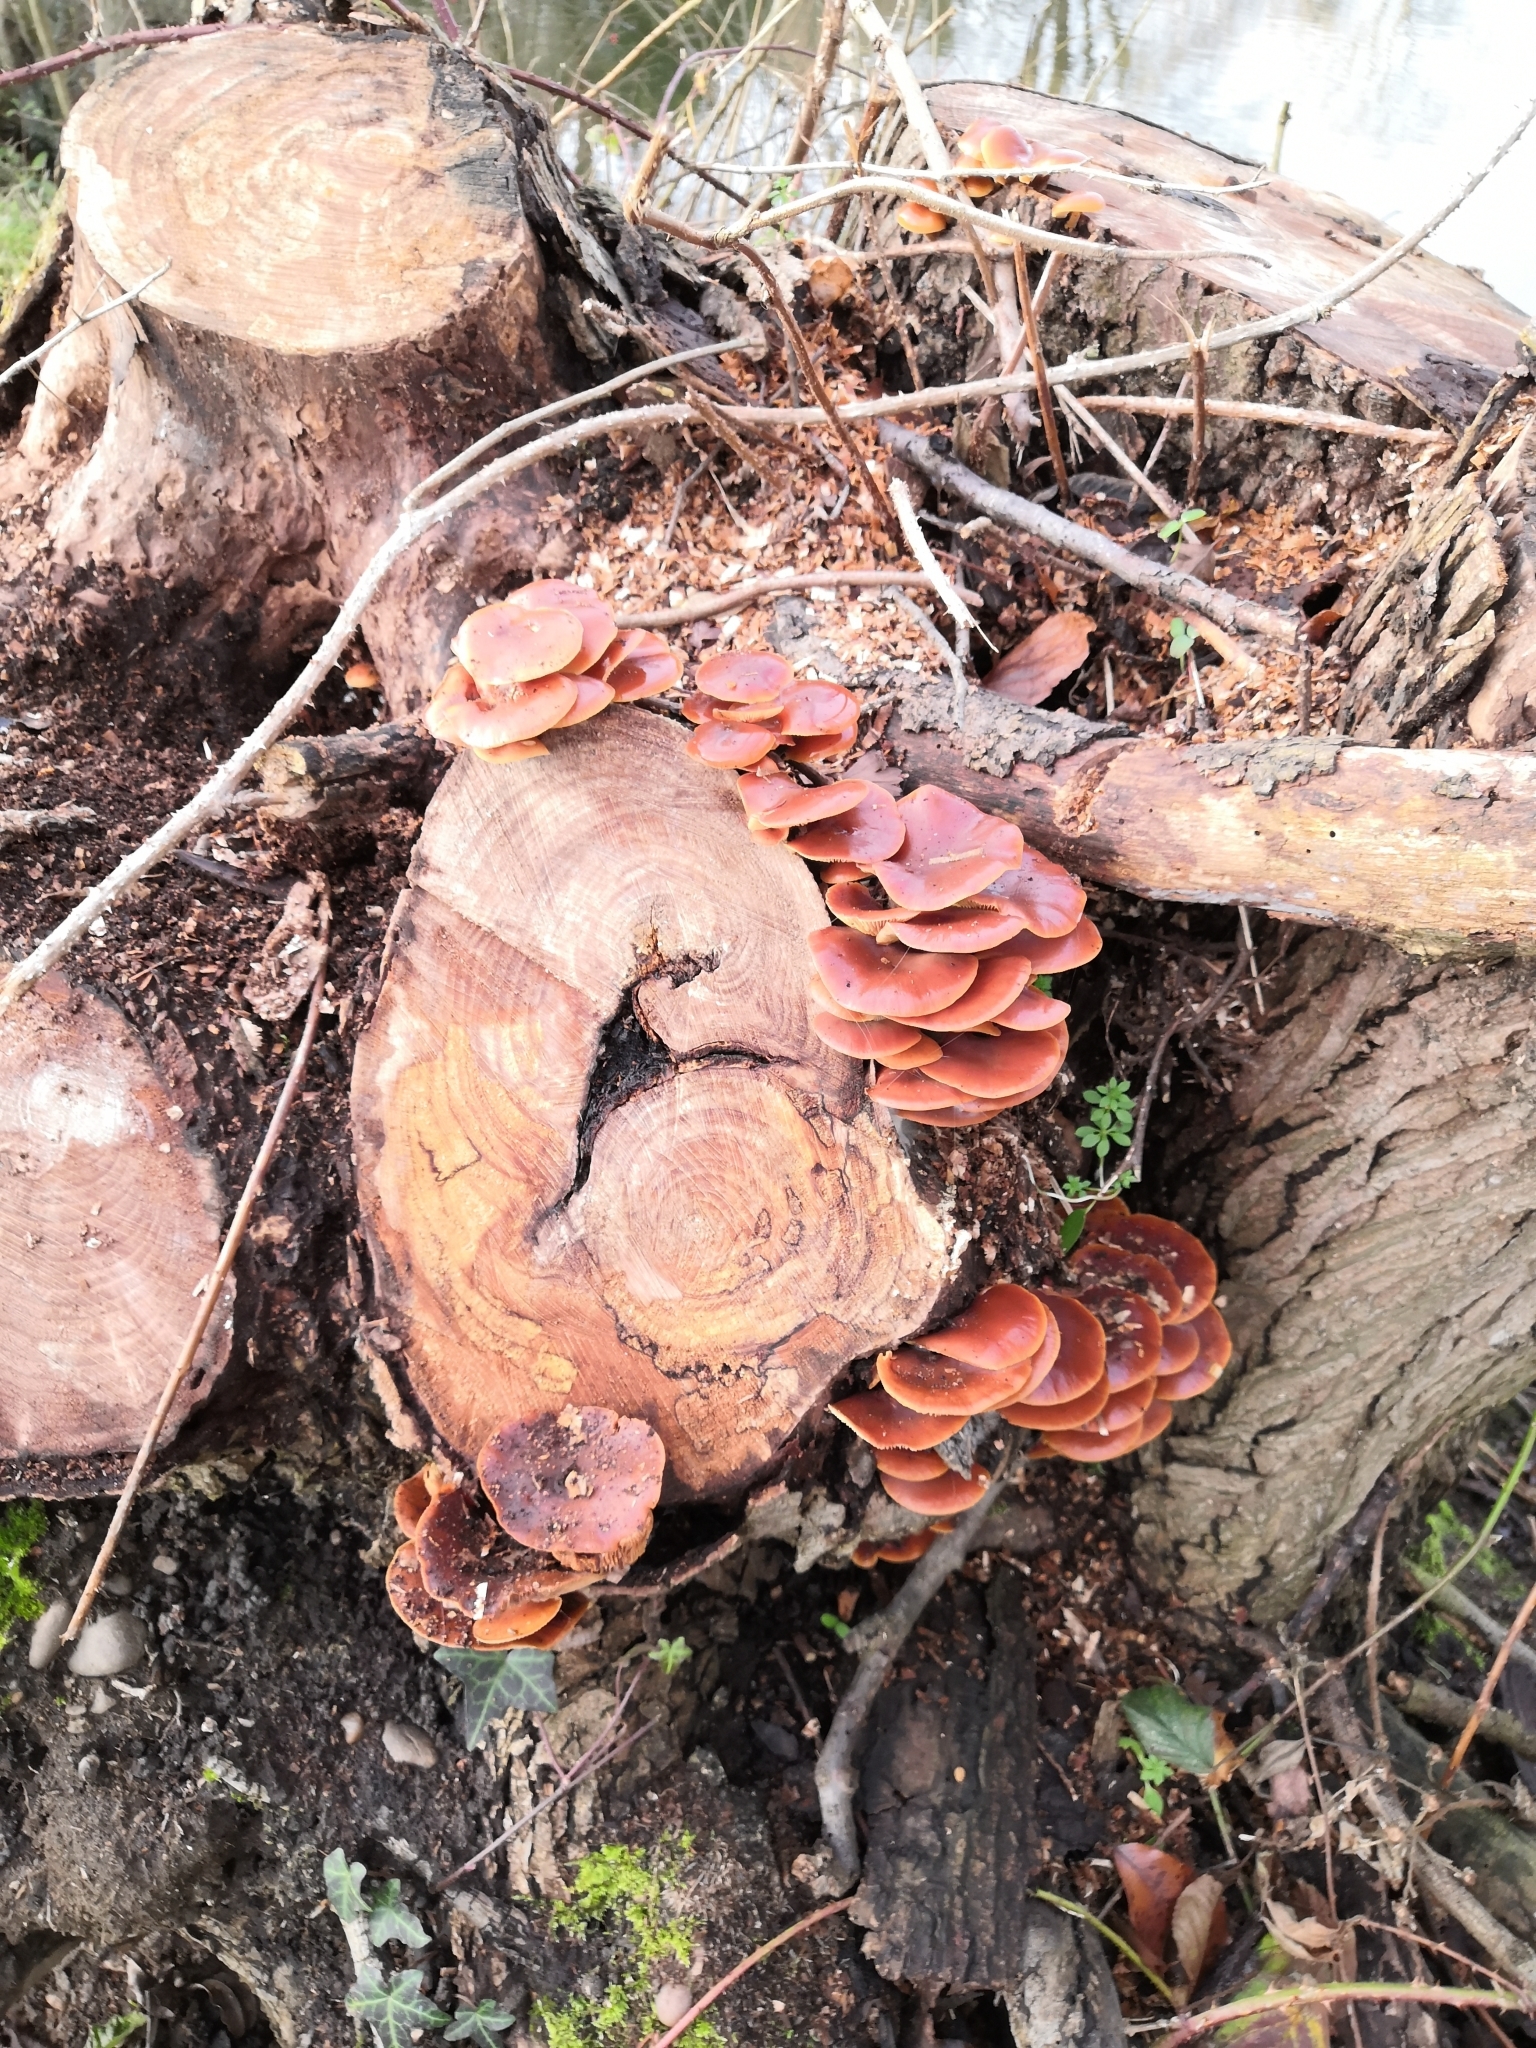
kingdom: Fungi
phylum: Basidiomycota
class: Agaricomycetes
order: Agaricales
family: Physalacriaceae
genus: Flammulina
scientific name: Flammulina
